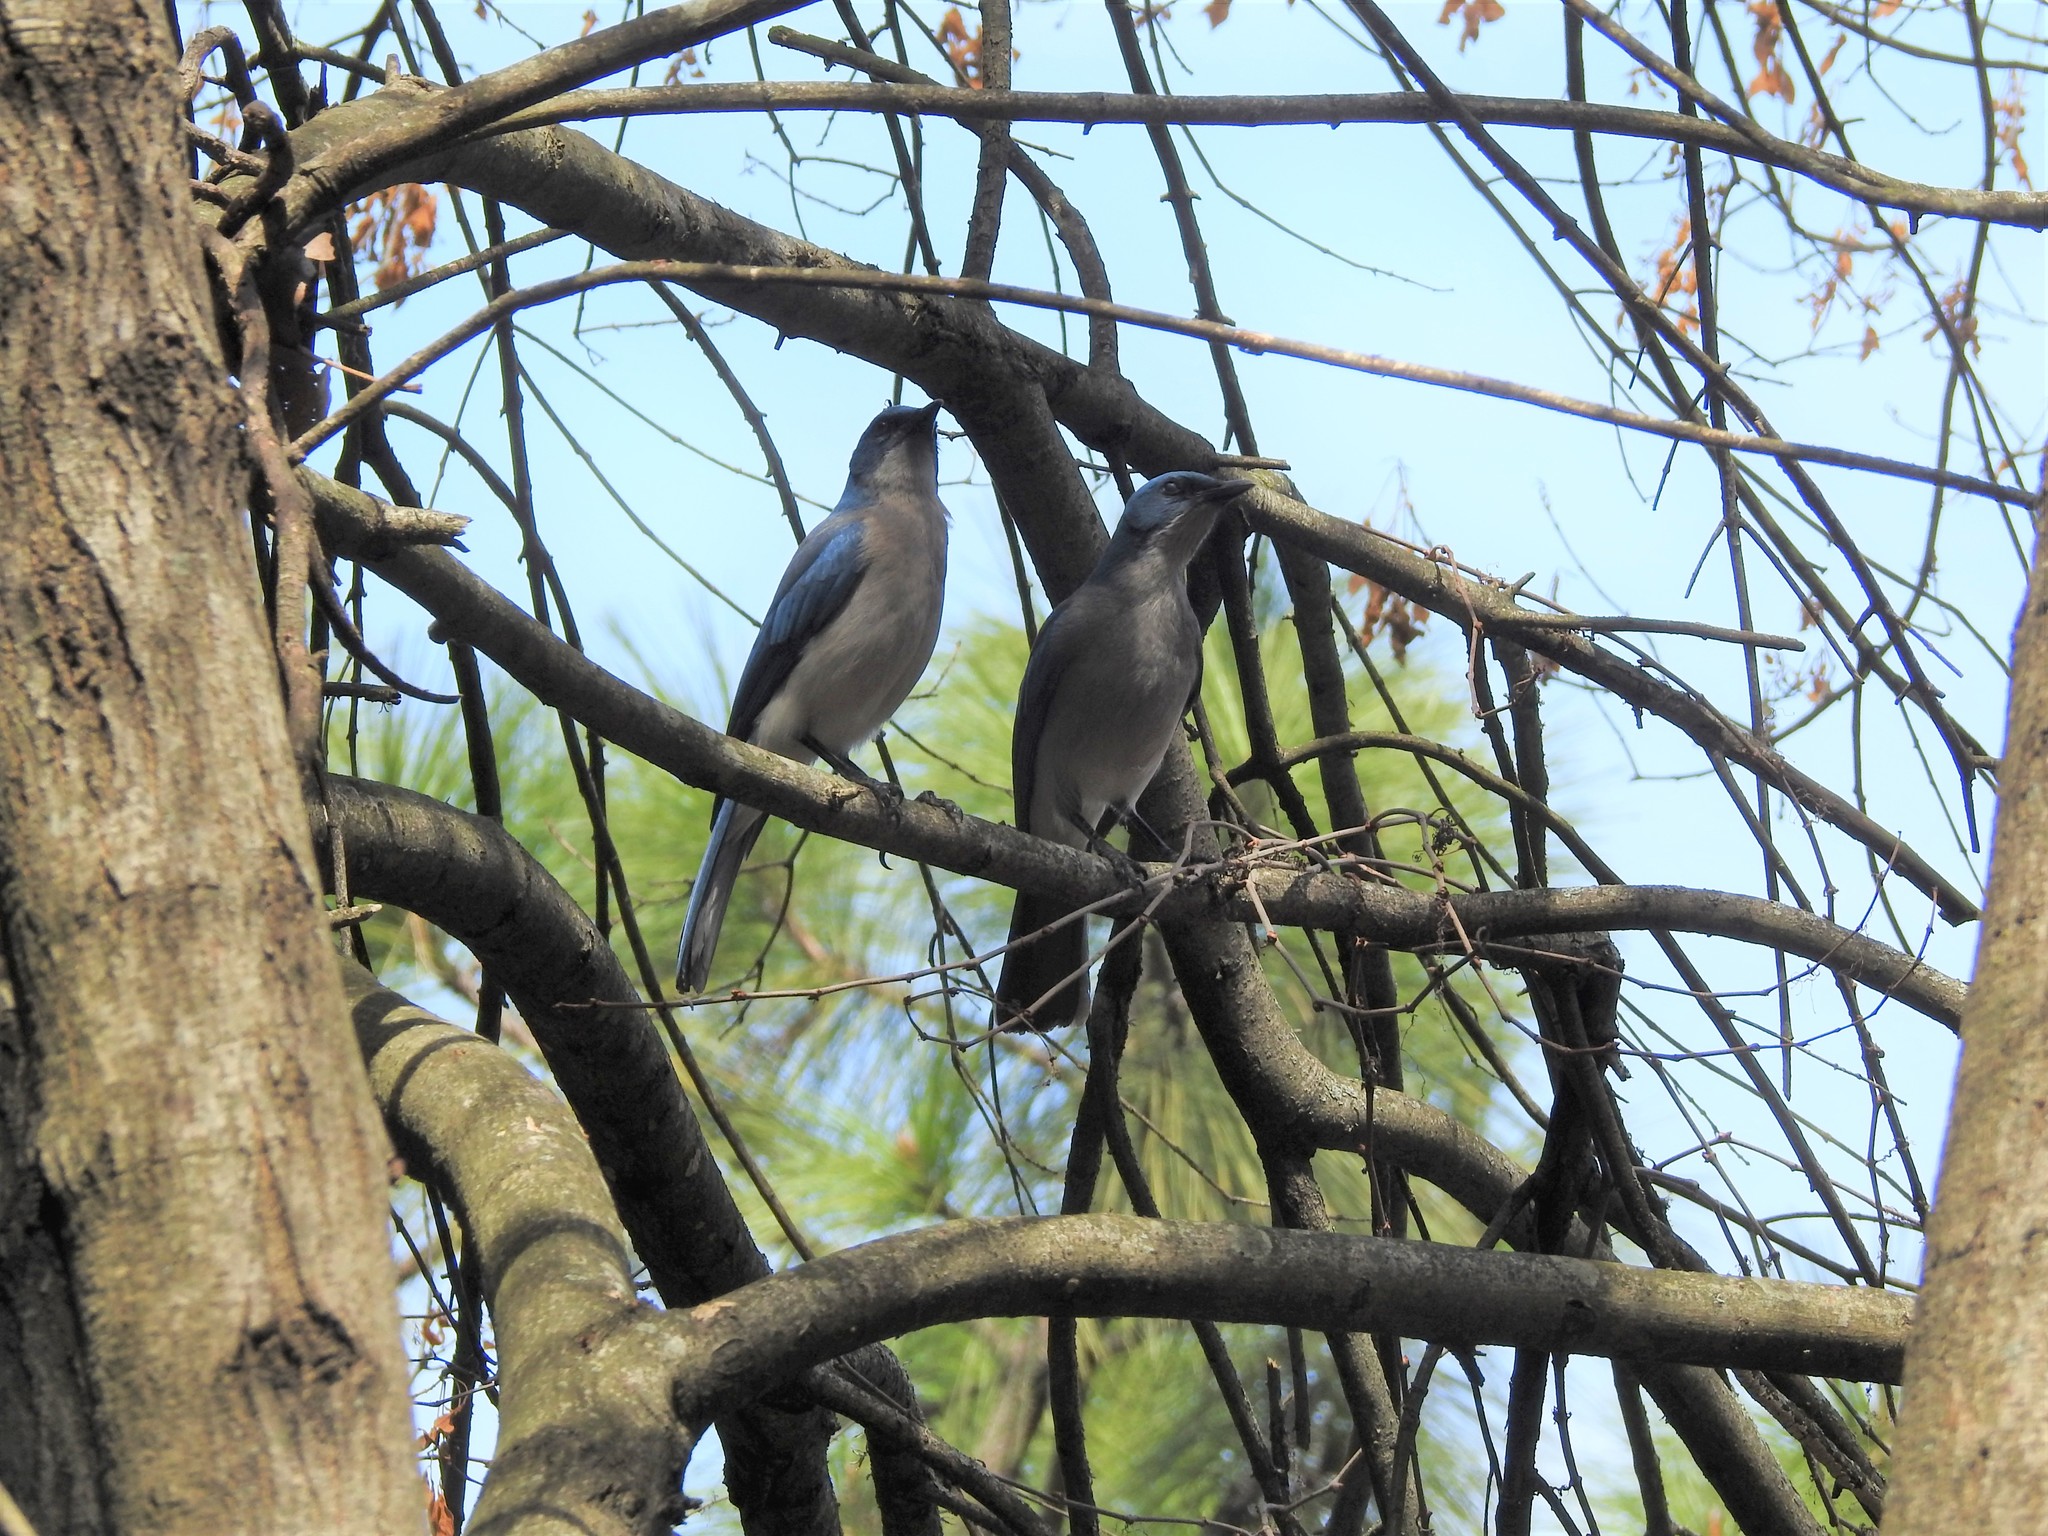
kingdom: Animalia
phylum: Chordata
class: Aves
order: Passeriformes
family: Corvidae
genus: Aphelocoma
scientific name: Aphelocoma wollweberi
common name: Mexican jay
